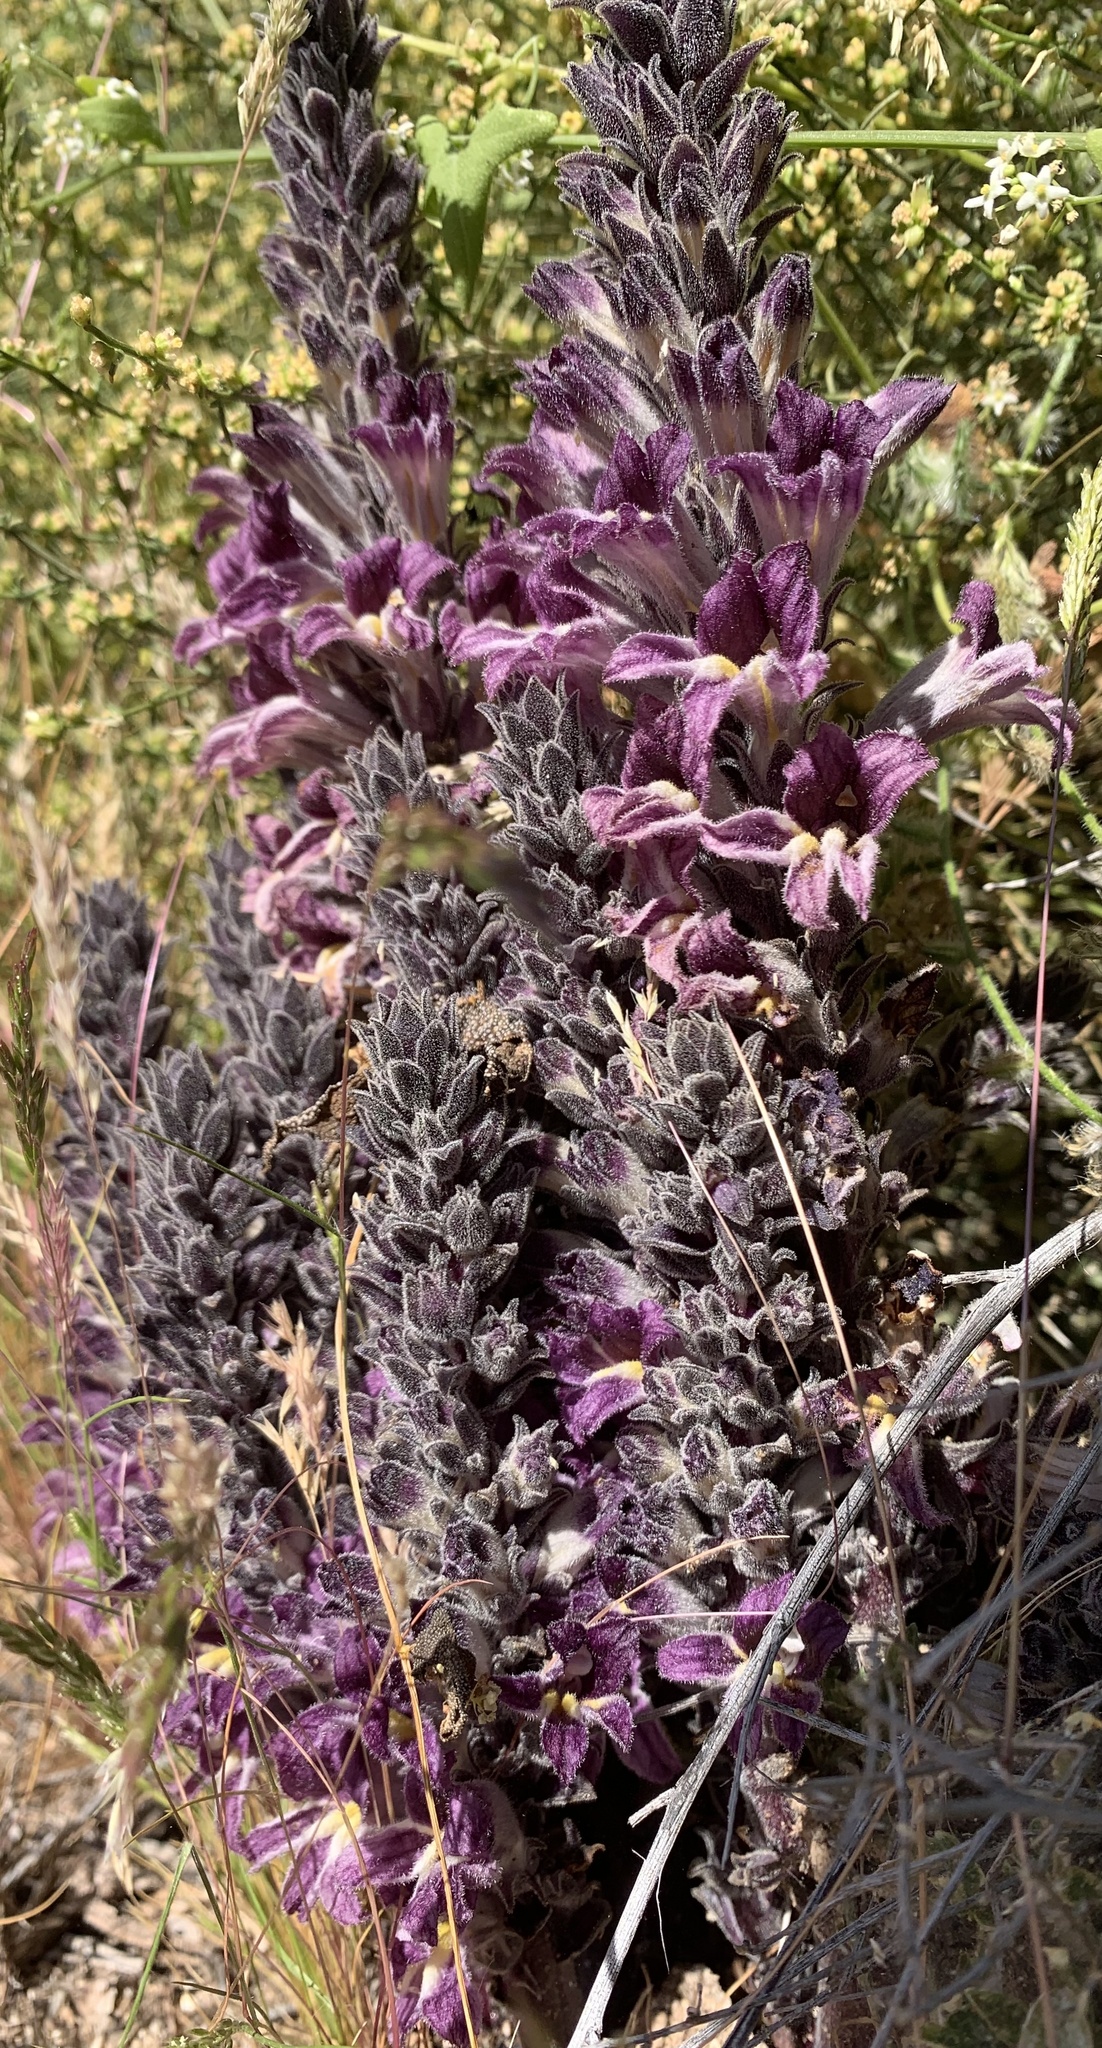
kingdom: Plantae
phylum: Tracheophyta
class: Magnoliopsida
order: Lamiales
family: Orobanchaceae
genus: Aphyllon
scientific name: Aphyllon cooperi
